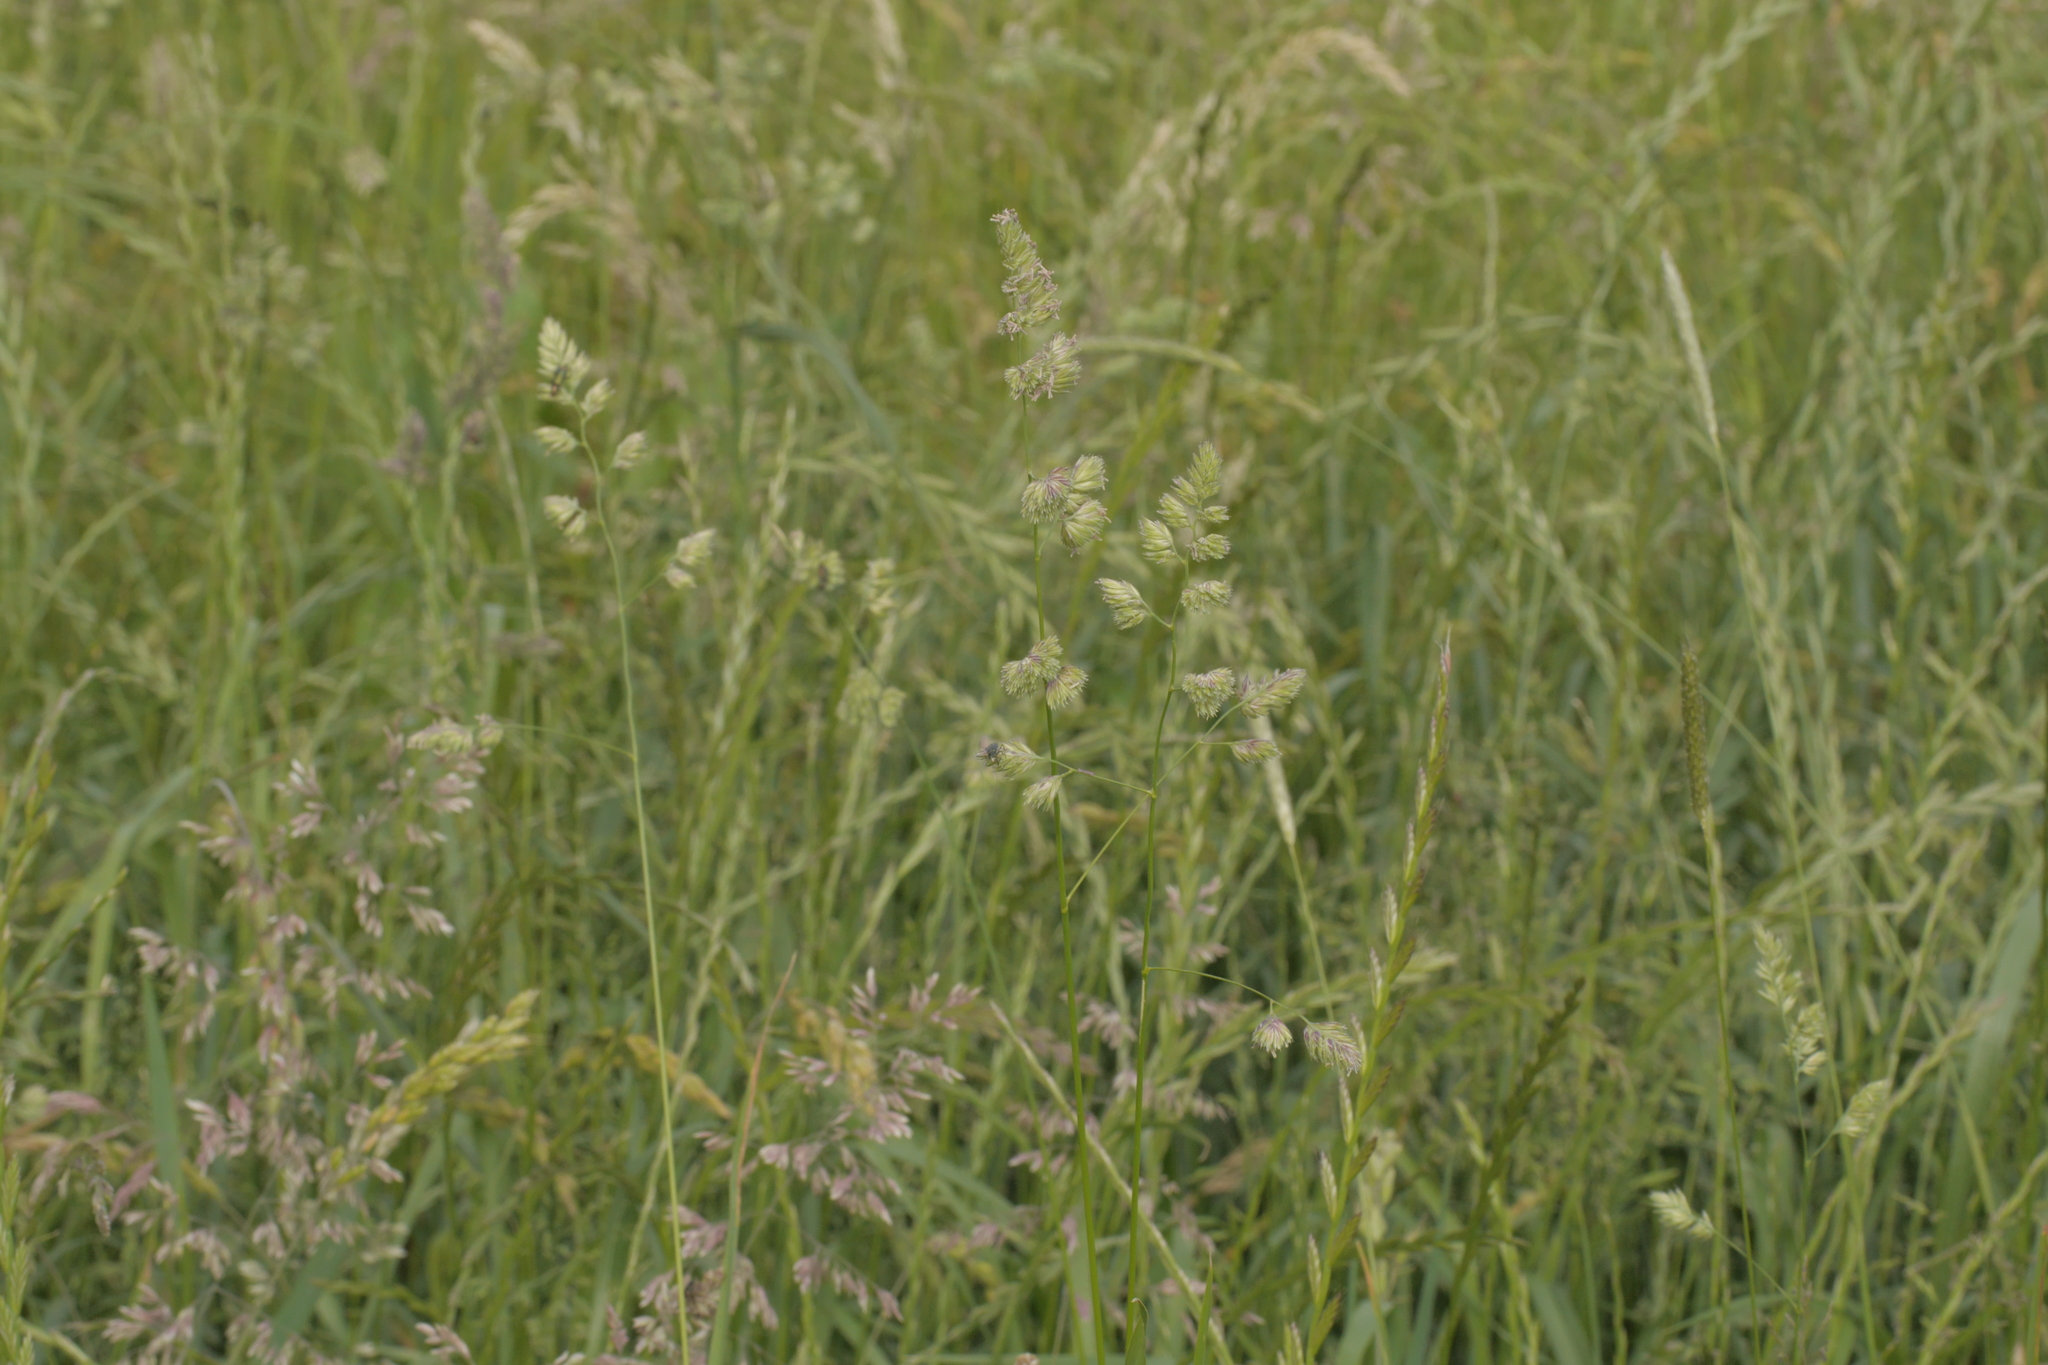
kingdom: Plantae
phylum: Tracheophyta
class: Liliopsida
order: Poales
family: Poaceae
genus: Dactylis
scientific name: Dactylis glomerata
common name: Orchardgrass
